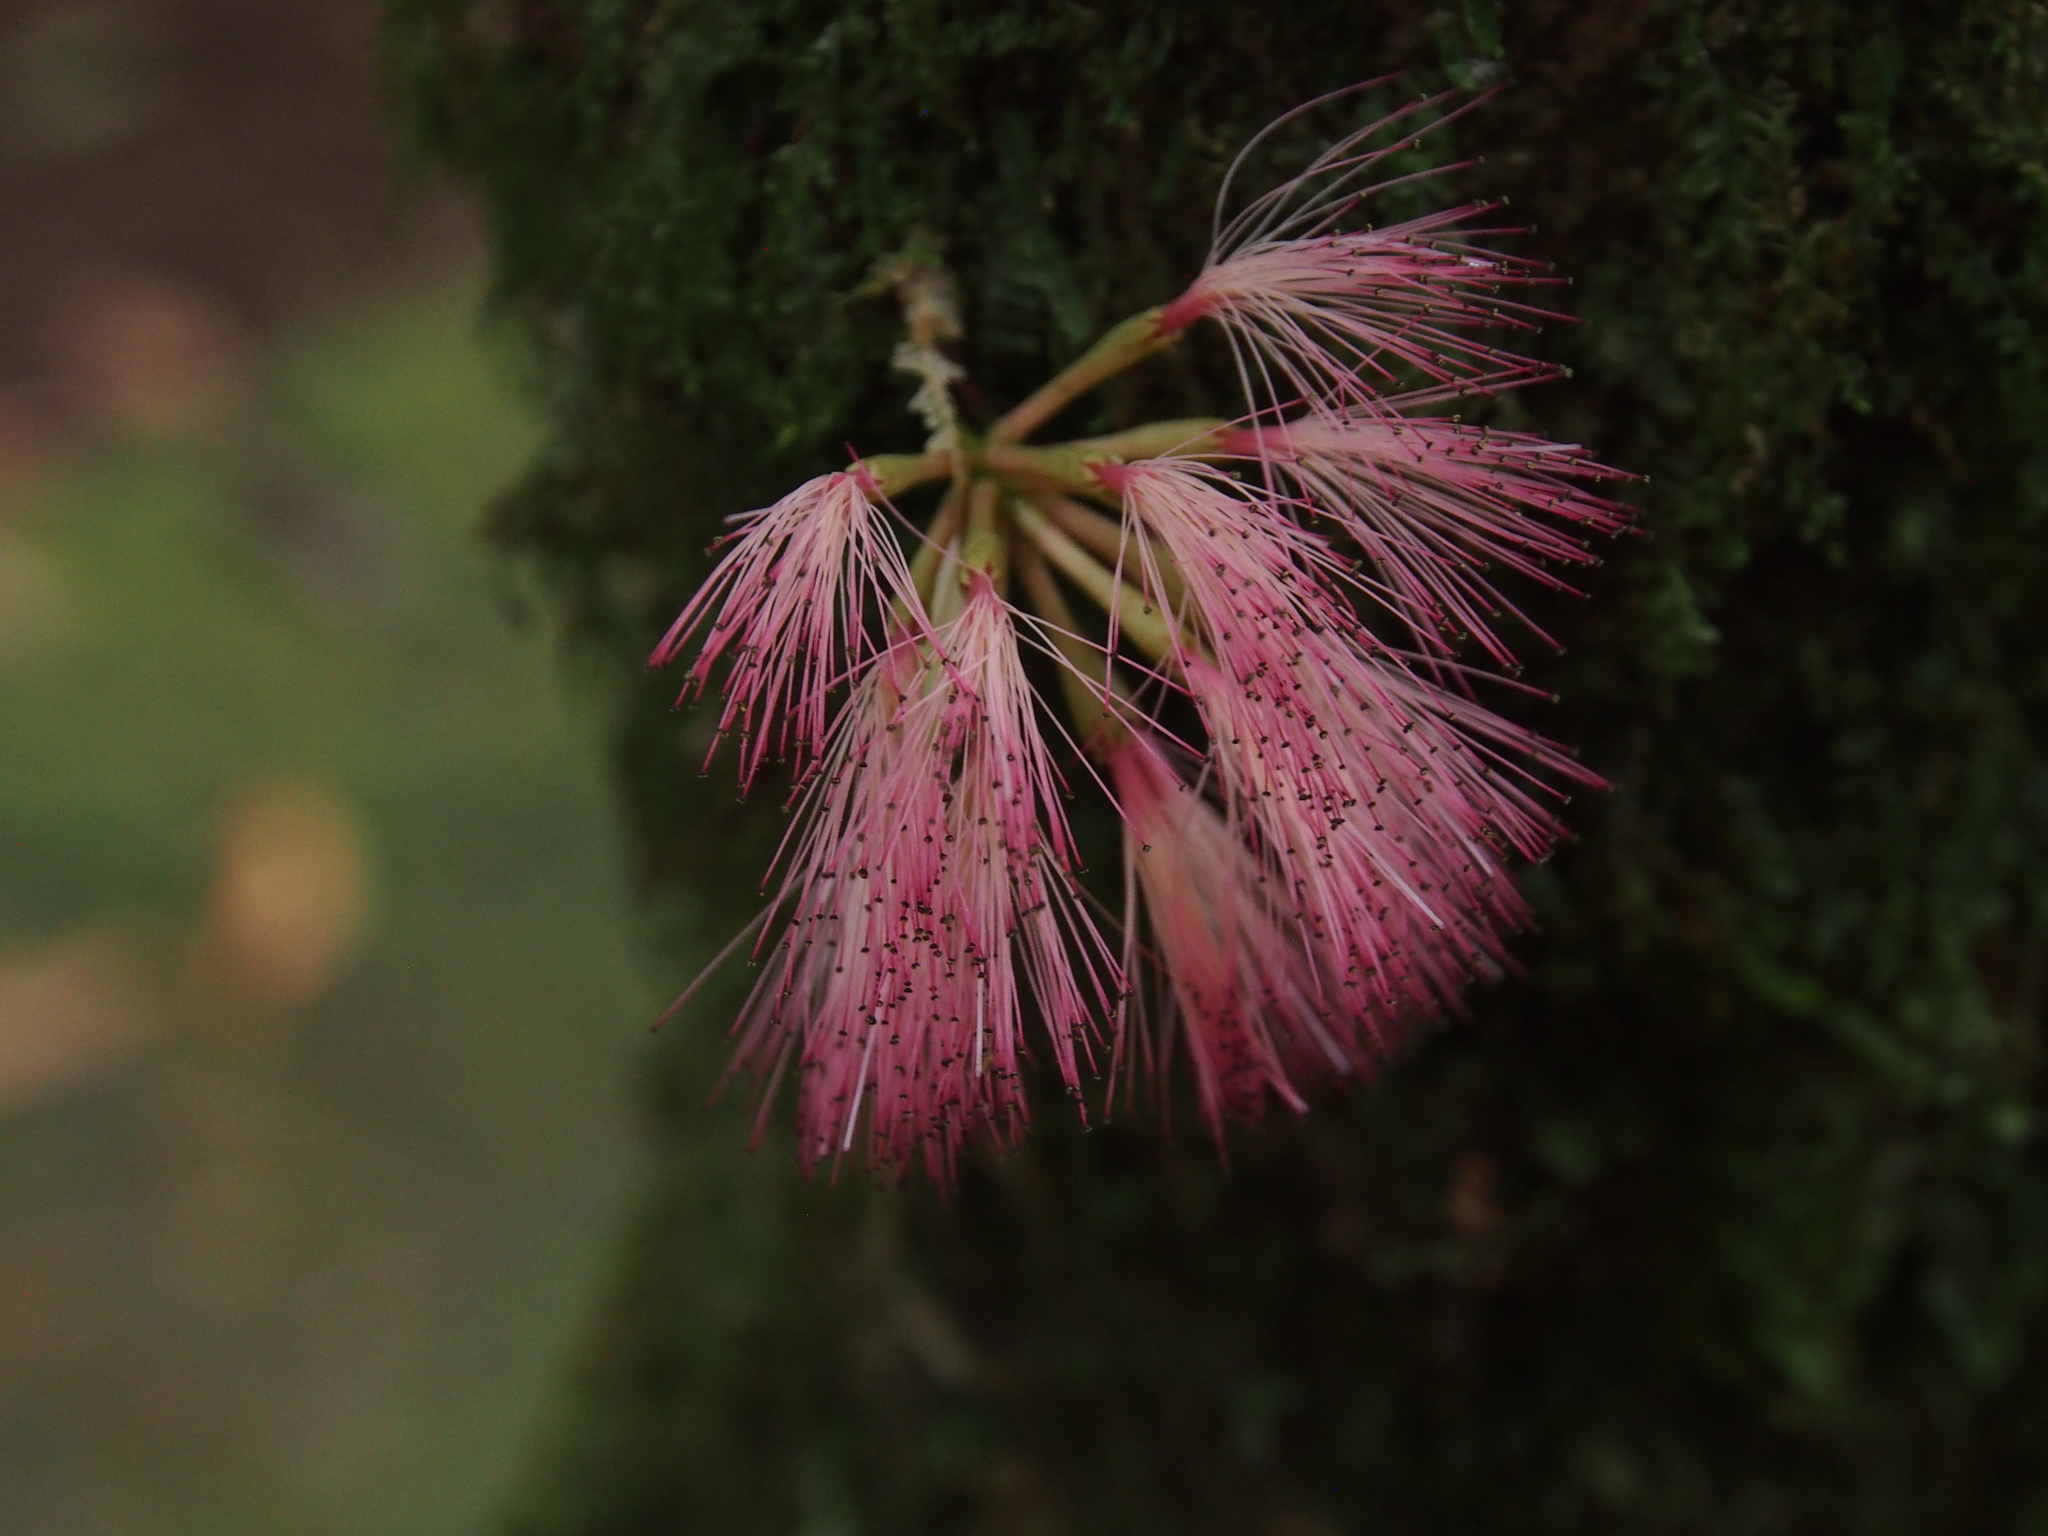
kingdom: Plantae
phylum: Tracheophyta
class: Magnoliopsida
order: Fabales
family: Fabaceae
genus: Zygia
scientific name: Zygia engelsingii
